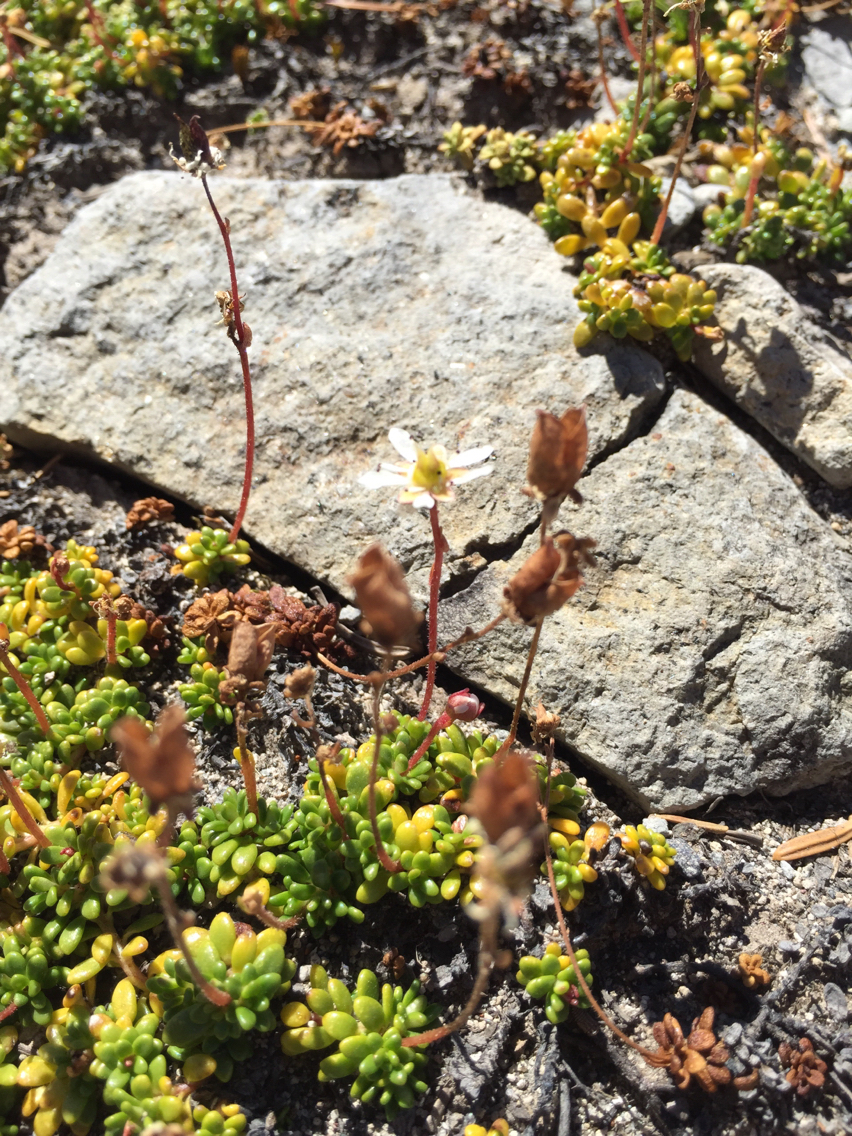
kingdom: Plantae
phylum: Tracheophyta
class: Magnoliopsida
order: Saxifragales
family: Saxifragaceae
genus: Micranthes
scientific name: Micranthes tolmiei
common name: Tolmie's saxifrage
